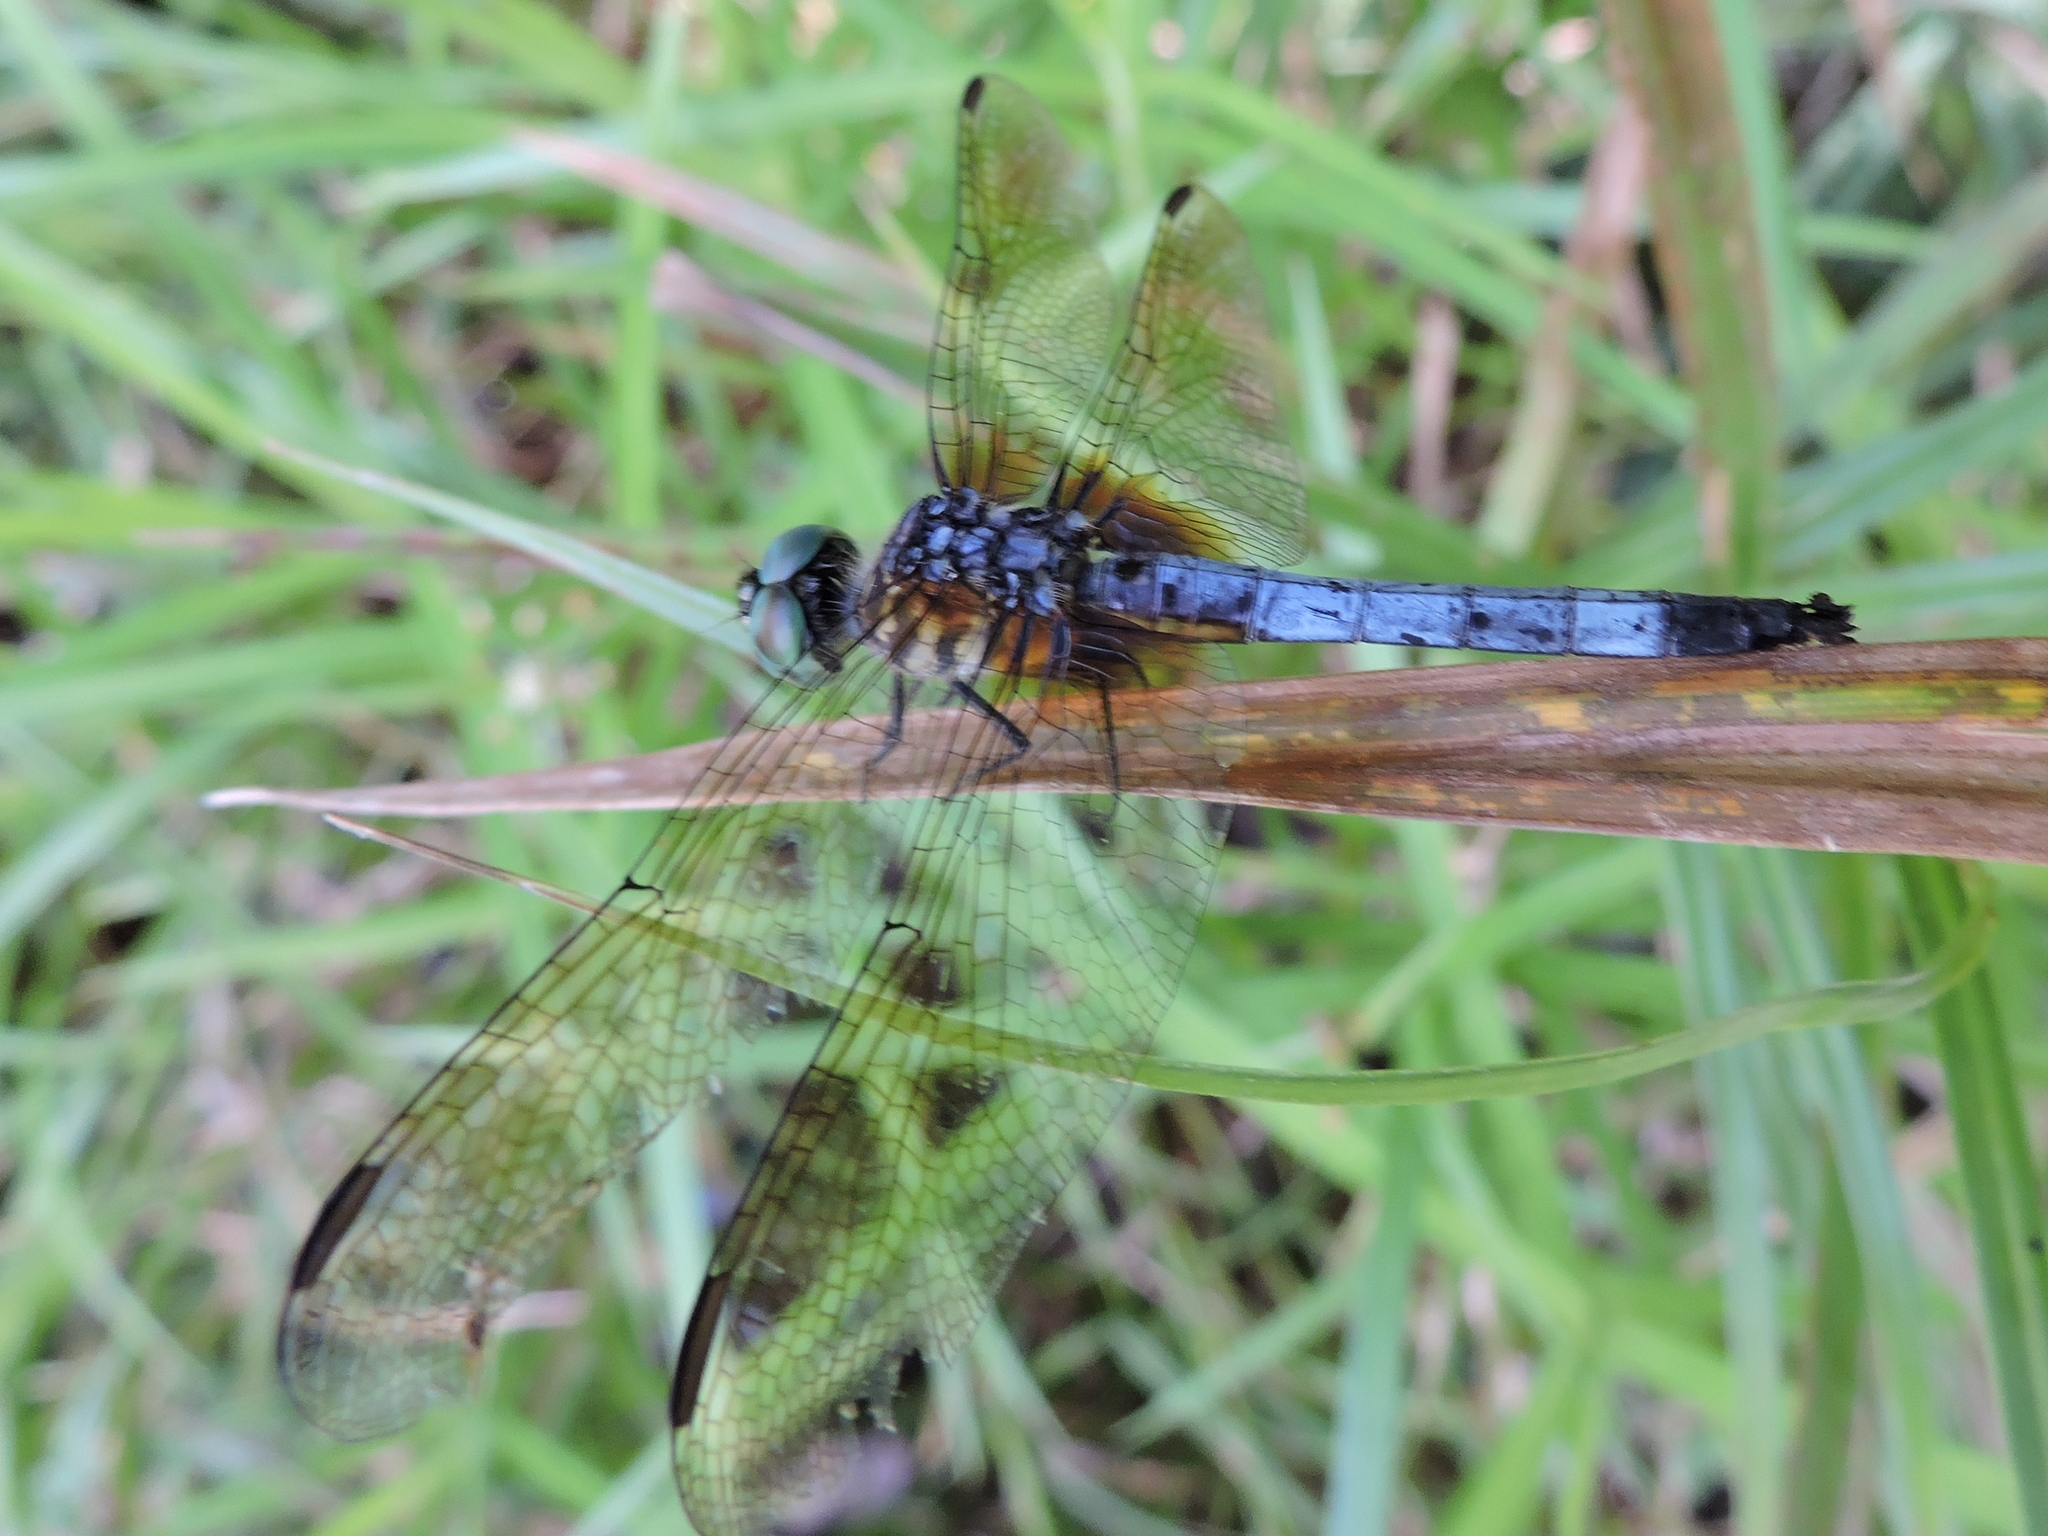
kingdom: Animalia
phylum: Arthropoda
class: Insecta
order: Odonata
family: Libellulidae
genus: Pachydiplax
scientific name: Pachydiplax longipennis
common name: Blue dasher
